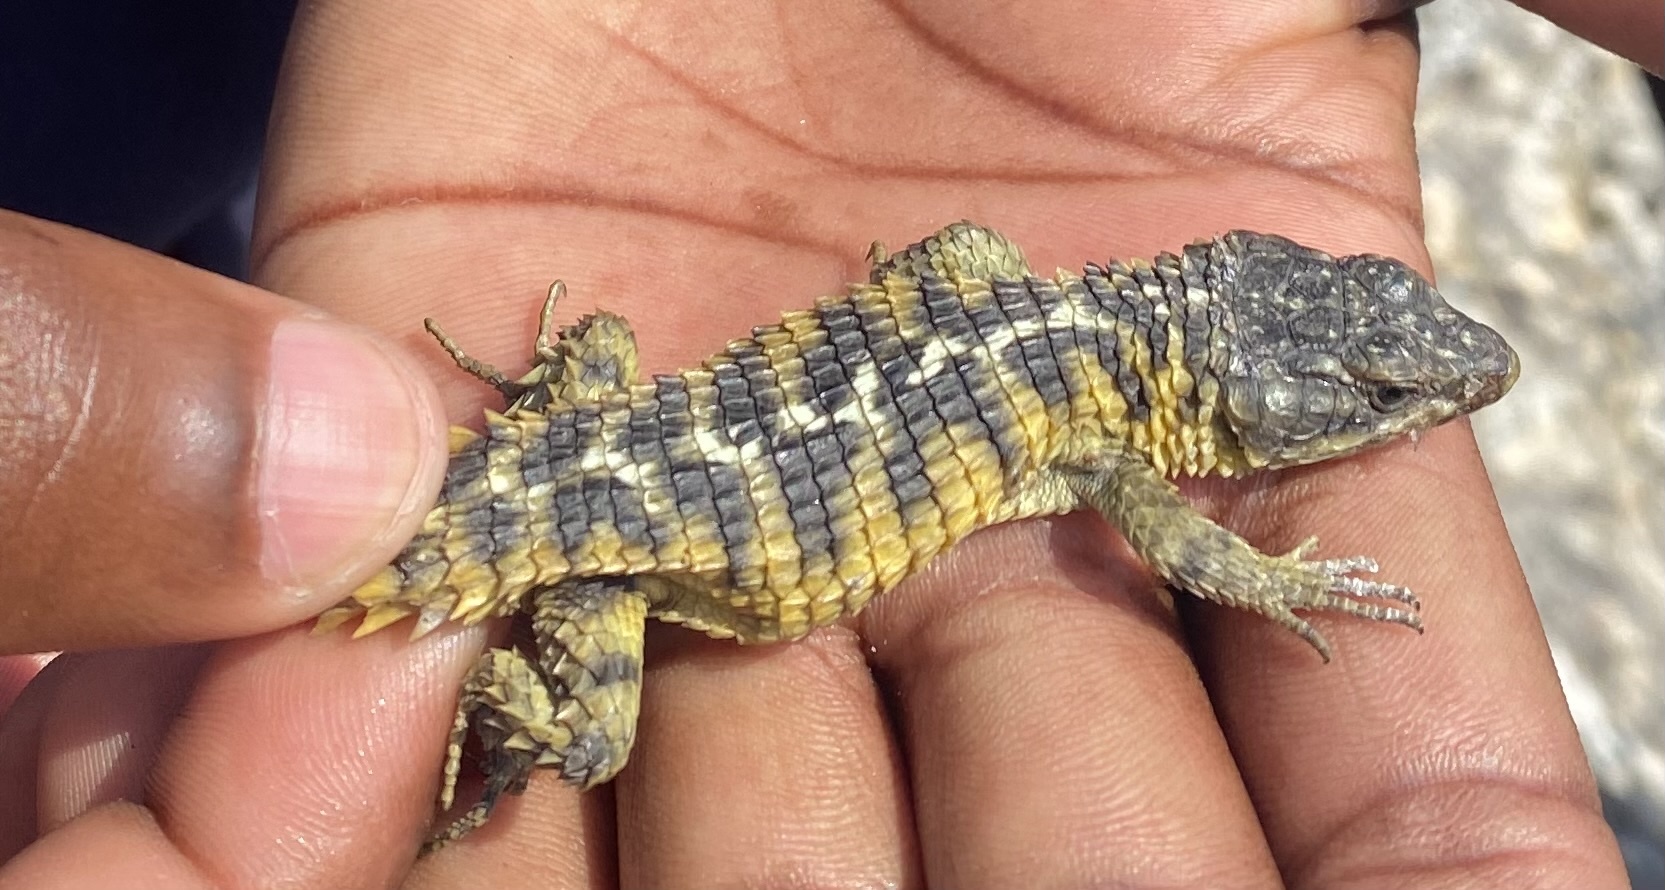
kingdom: Animalia
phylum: Chordata
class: Squamata
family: Cordylidae
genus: Cordylus
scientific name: Cordylus cordylus
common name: Cape girdled lizard
